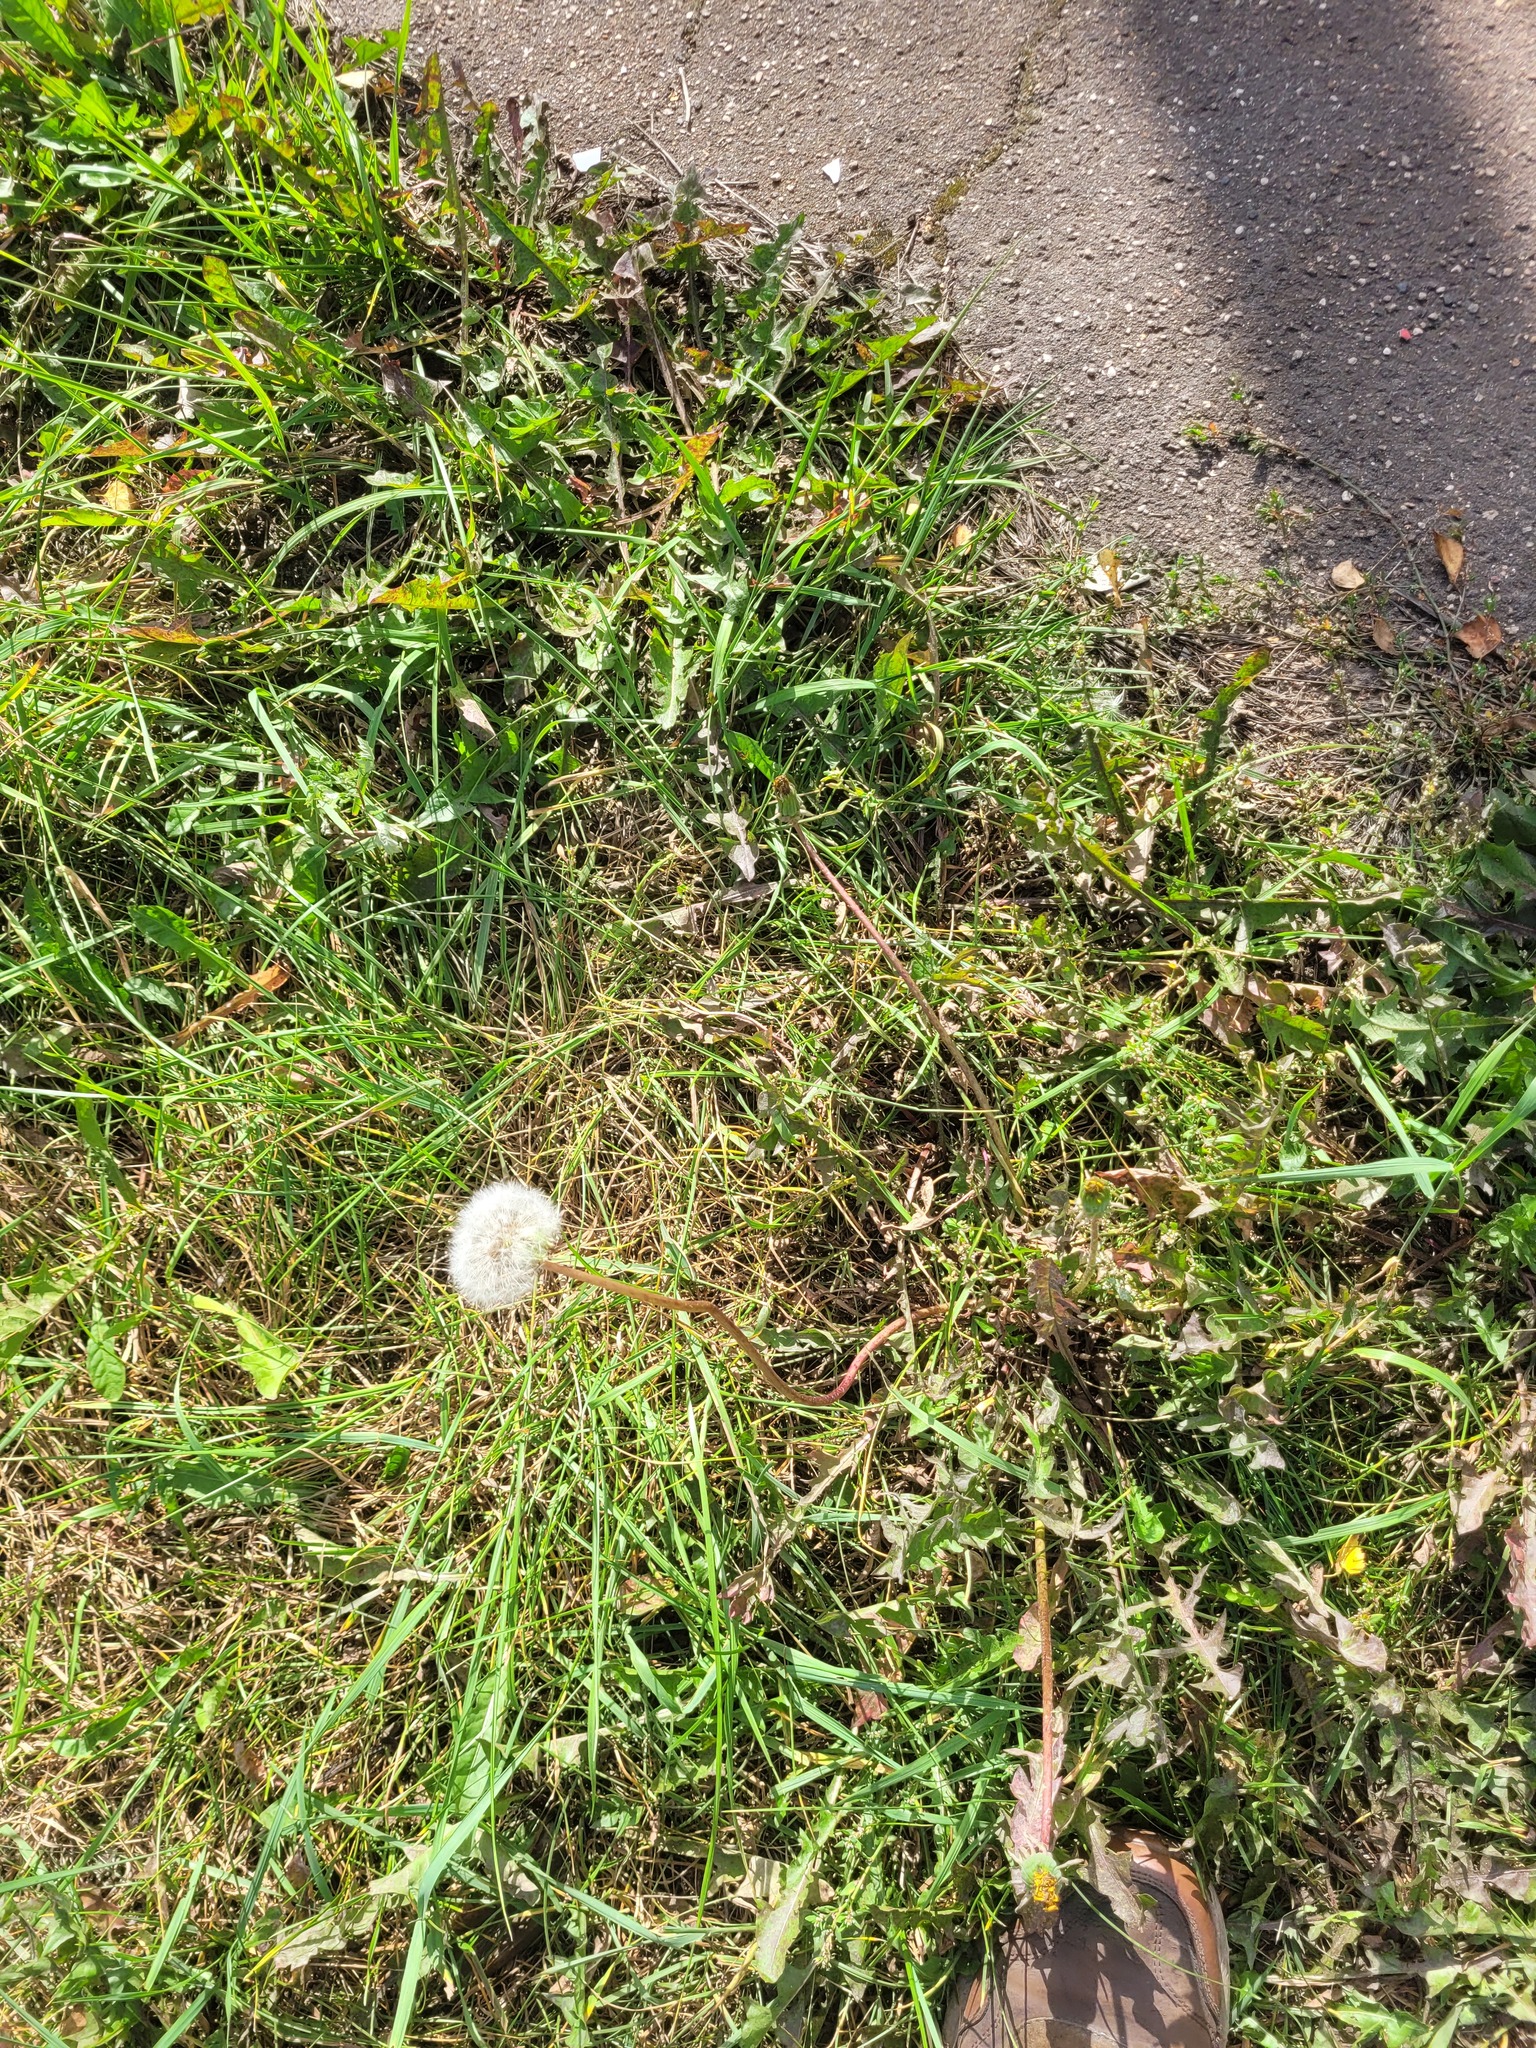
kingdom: Plantae
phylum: Tracheophyta
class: Magnoliopsida
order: Asterales
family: Asteraceae
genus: Taraxacum
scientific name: Taraxacum officinale
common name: Common dandelion
